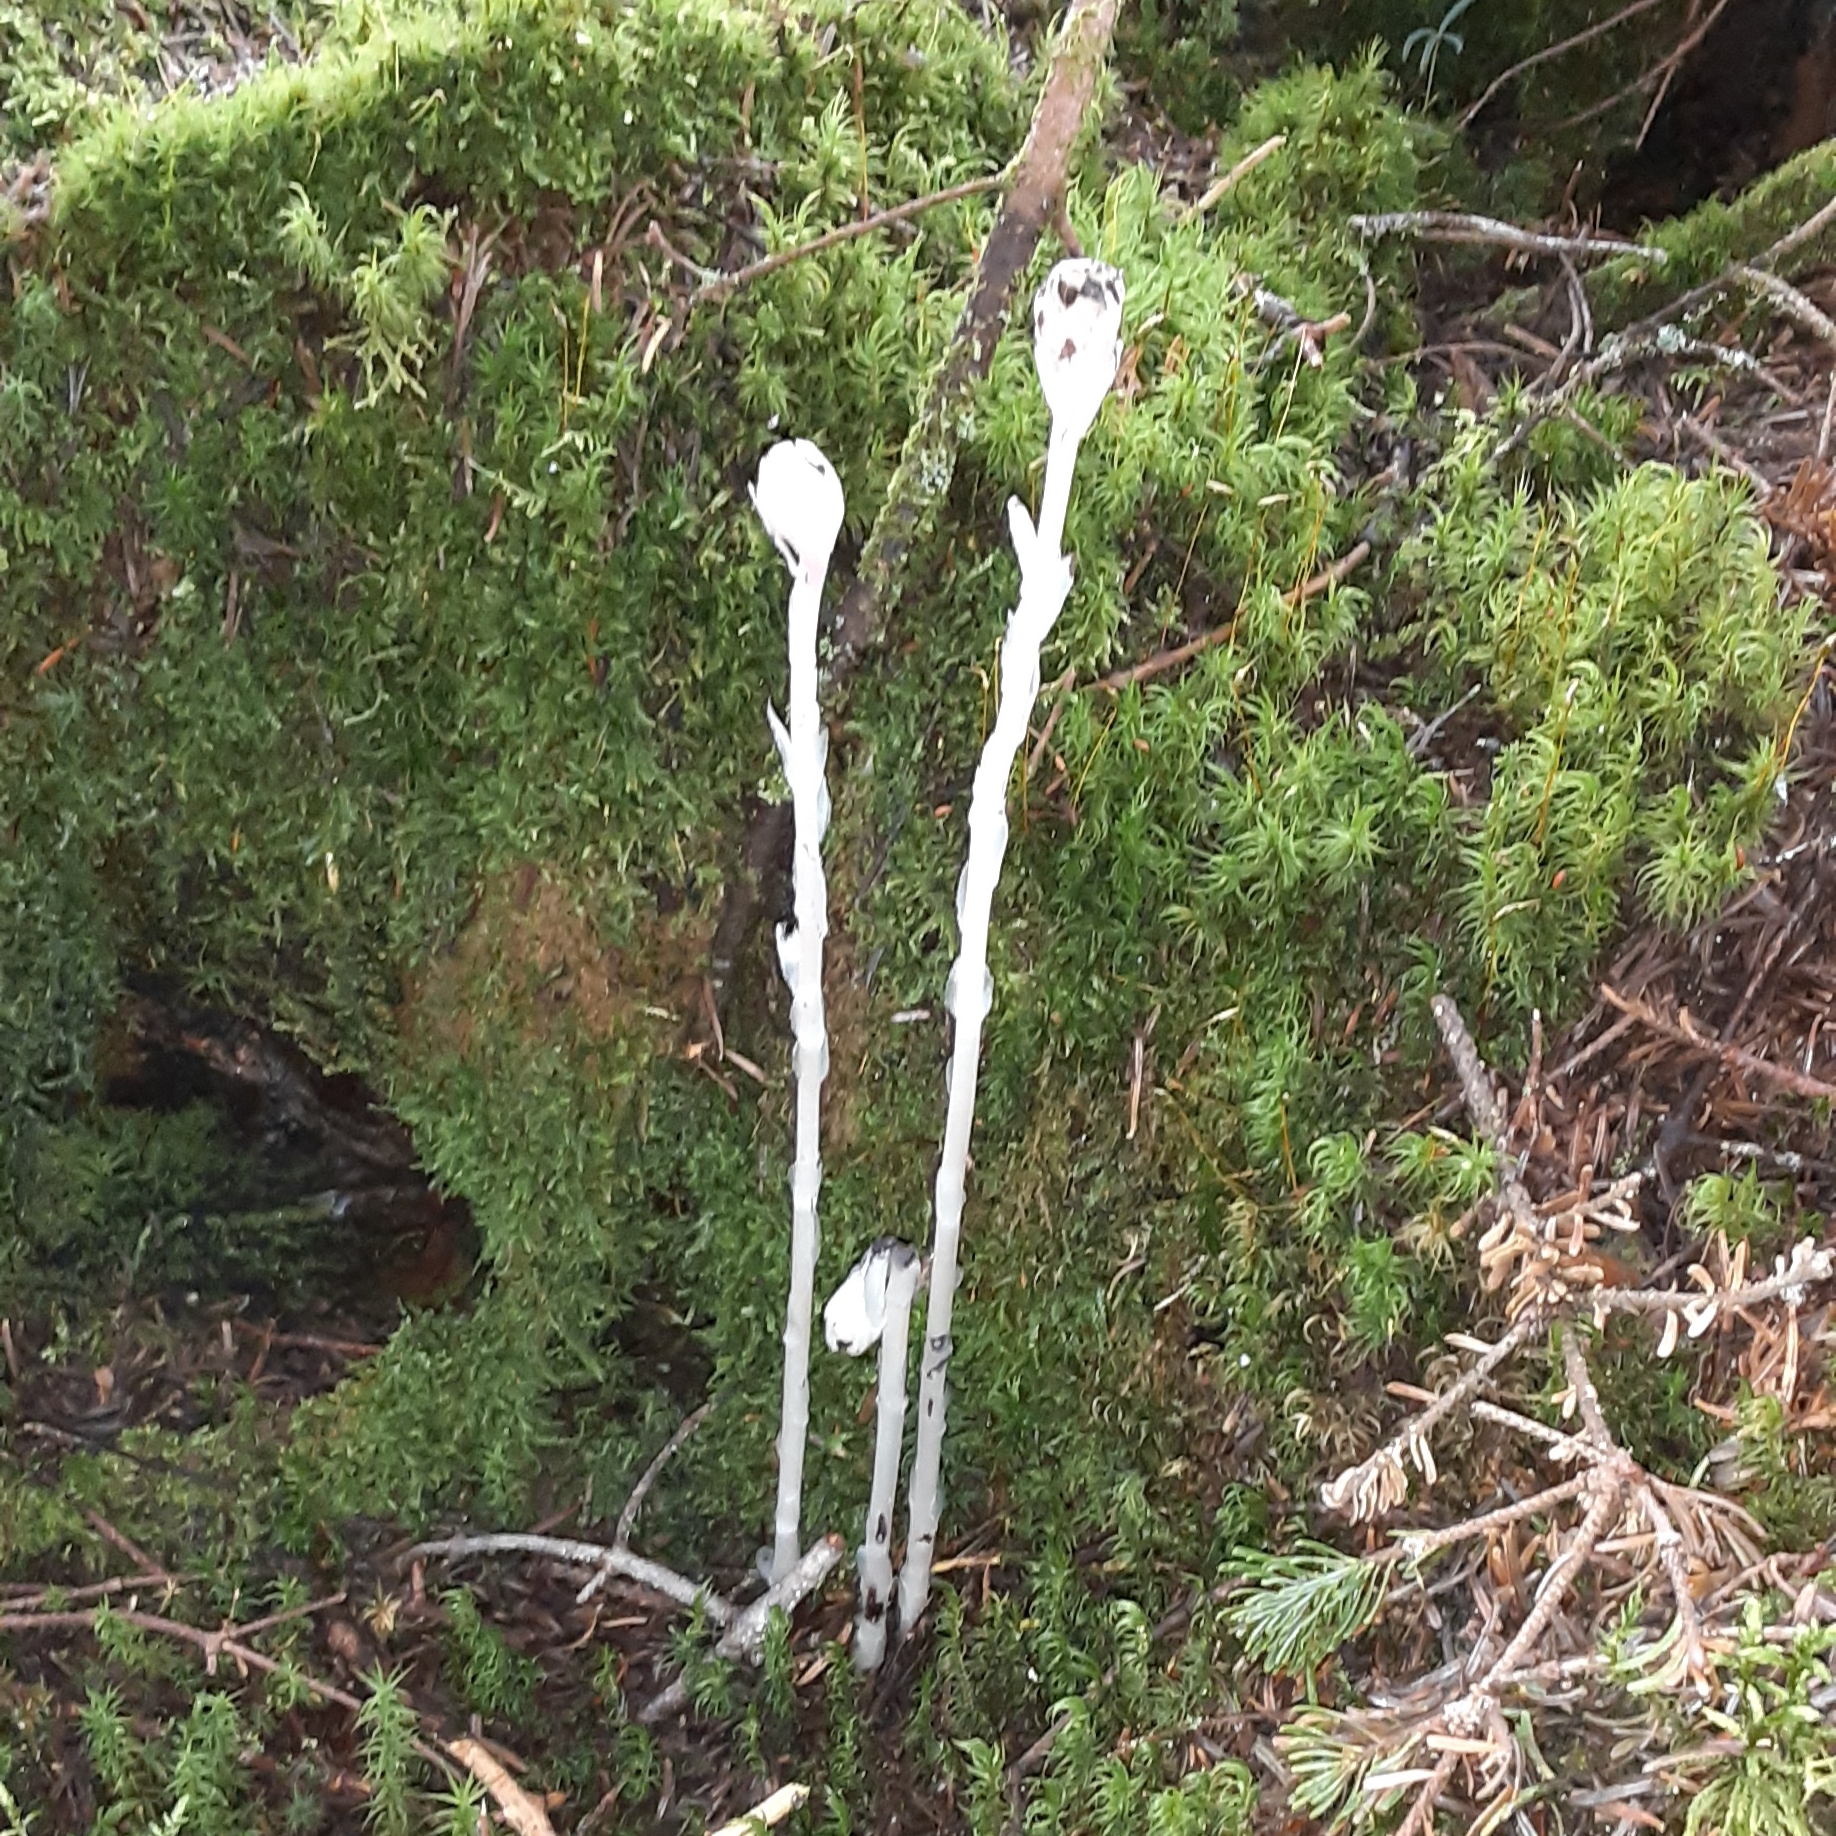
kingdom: Plantae
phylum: Tracheophyta
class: Magnoliopsida
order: Ericales
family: Ericaceae
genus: Monotropa
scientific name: Monotropa uniflora
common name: Convulsion root
